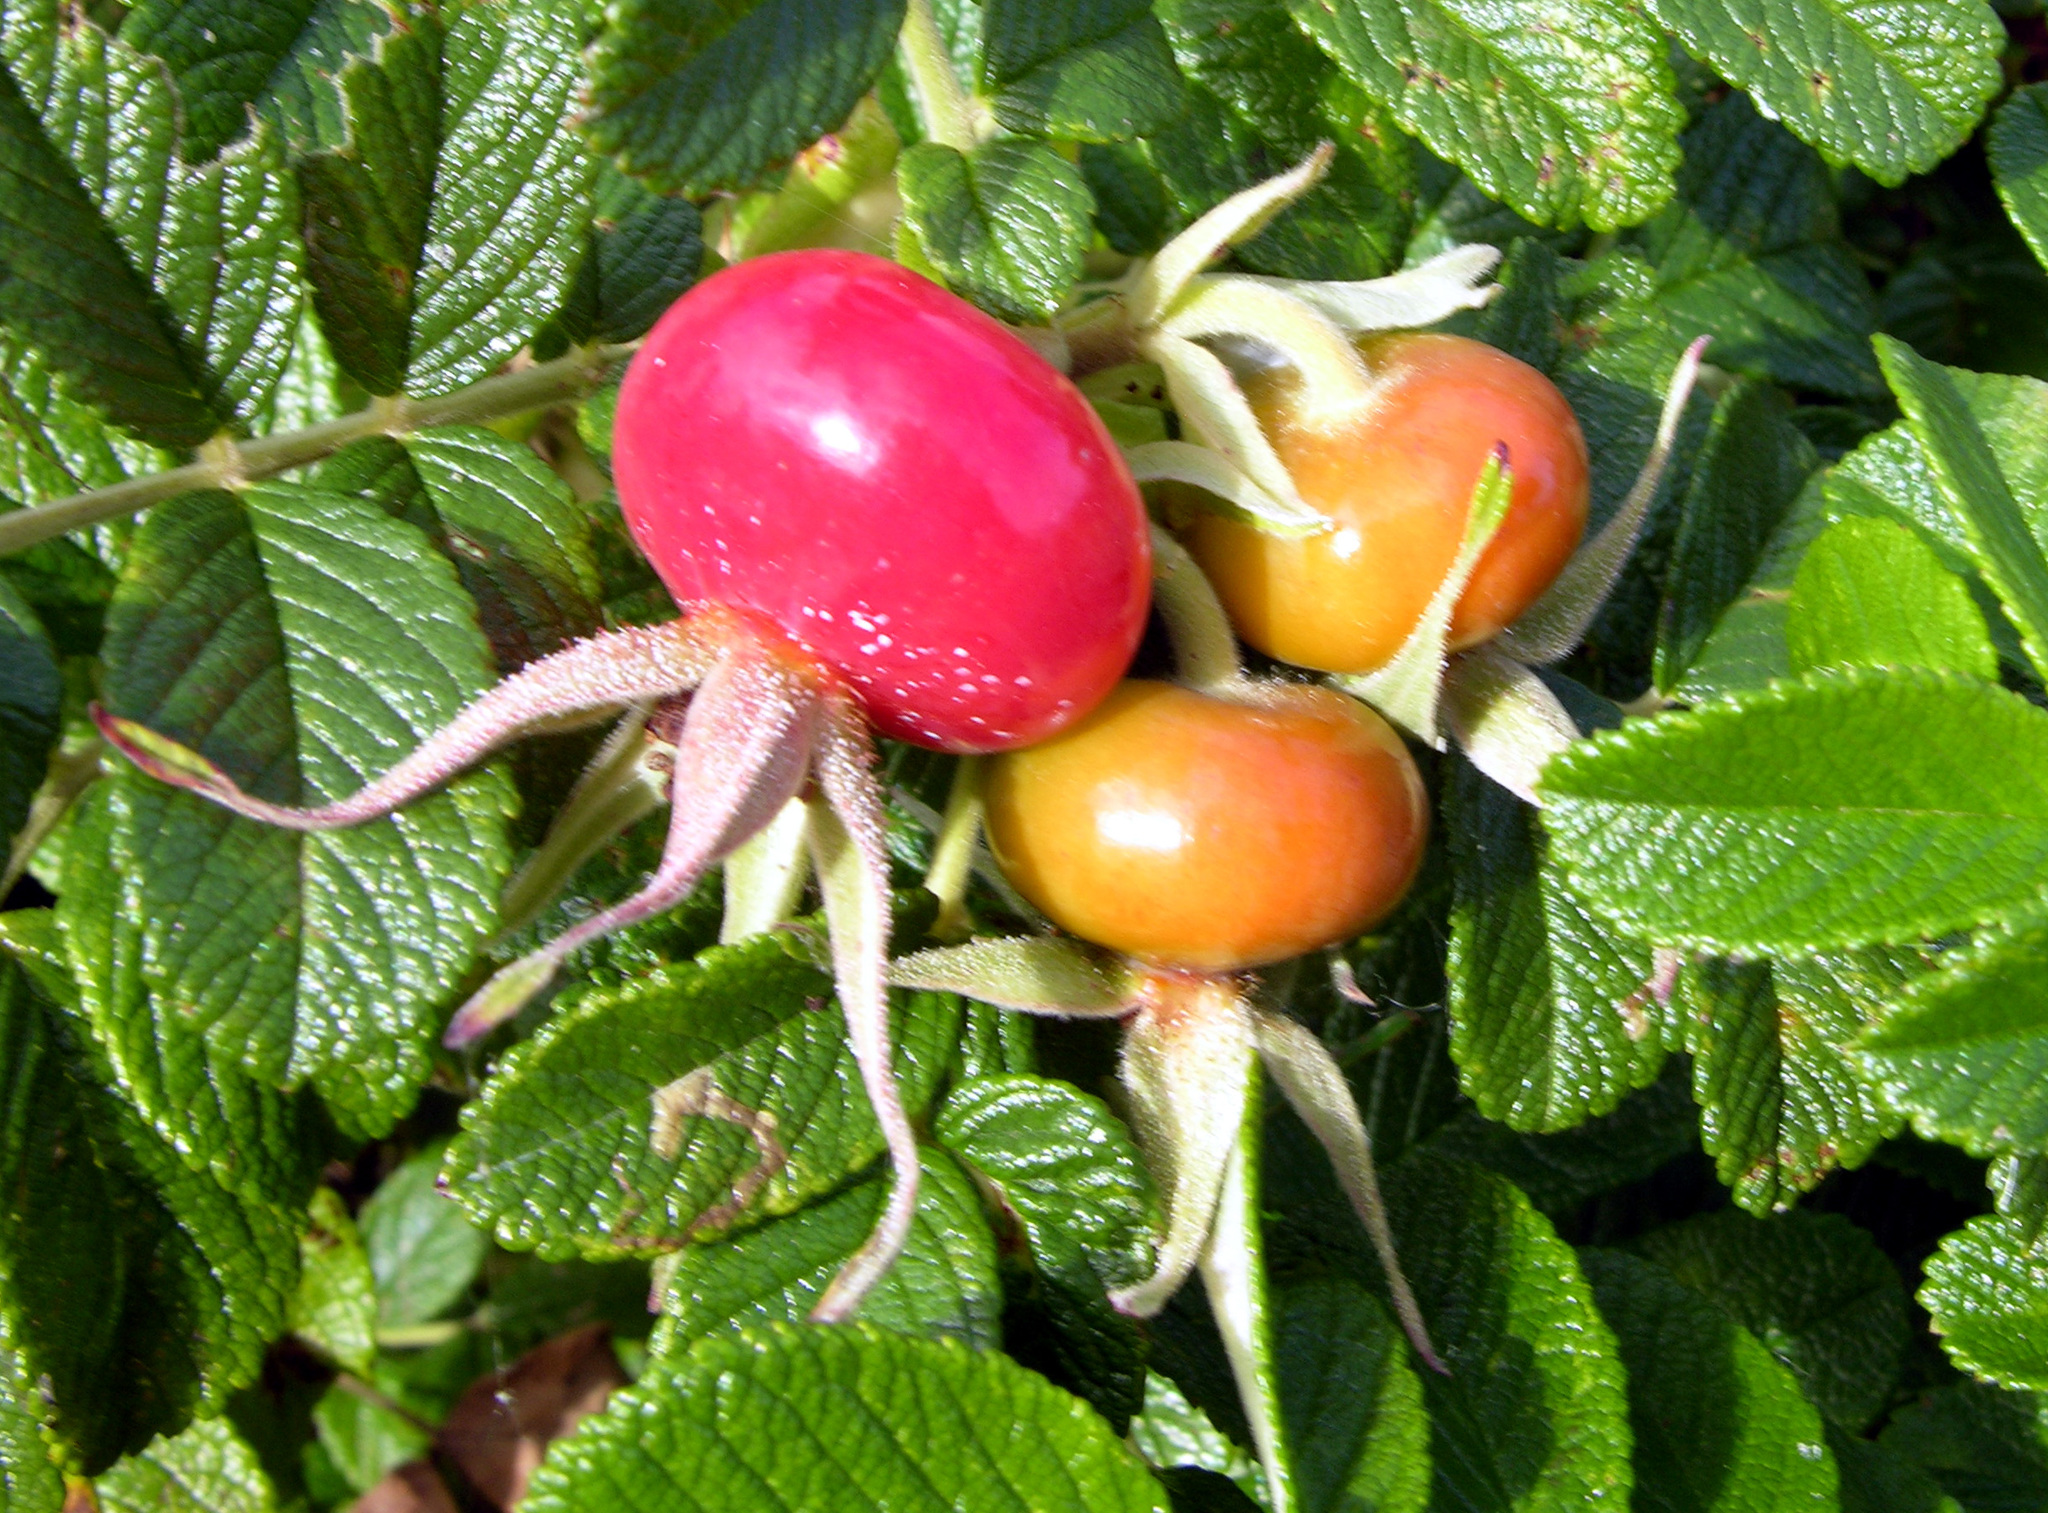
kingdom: Plantae
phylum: Tracheophyta
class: Magnoliopsida
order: Rosales
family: Rosaceae
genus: Rosa
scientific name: Rosa rugosa
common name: Japanese rose
